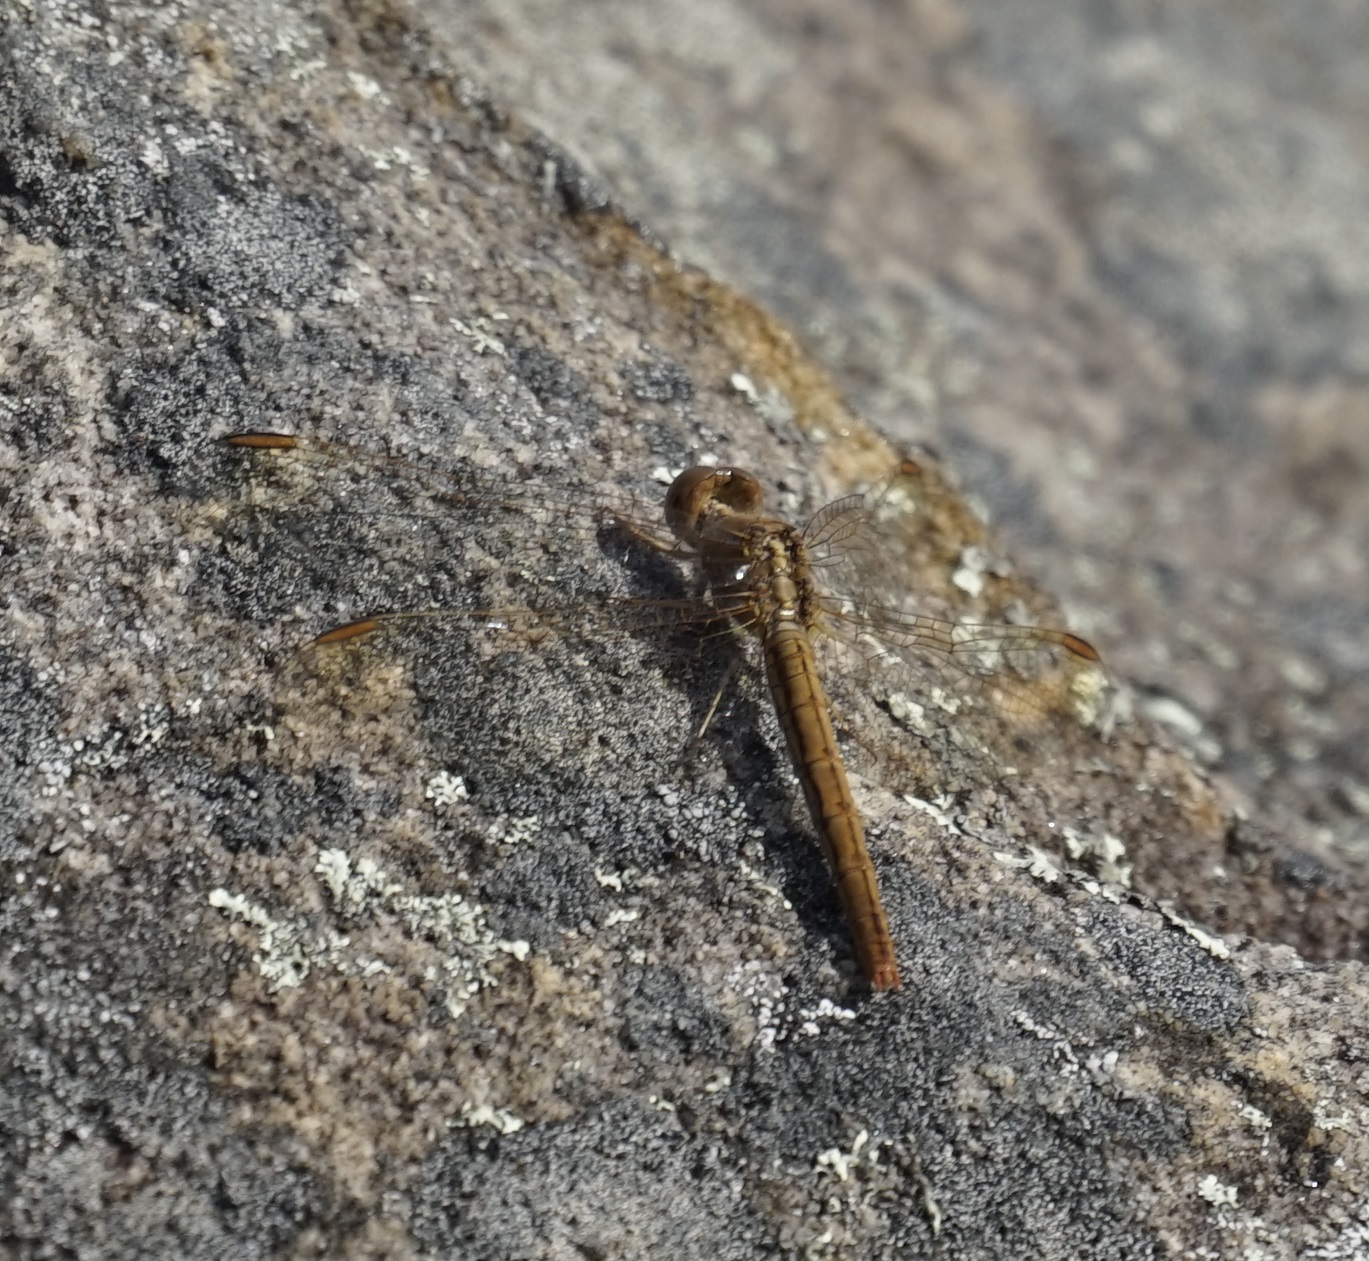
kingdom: Animalia
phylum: Arthropoda
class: Insecta
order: Odonata
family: Libellulidae
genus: Diplacodes
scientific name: Diplacodes haematodes
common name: Scarlet percher
